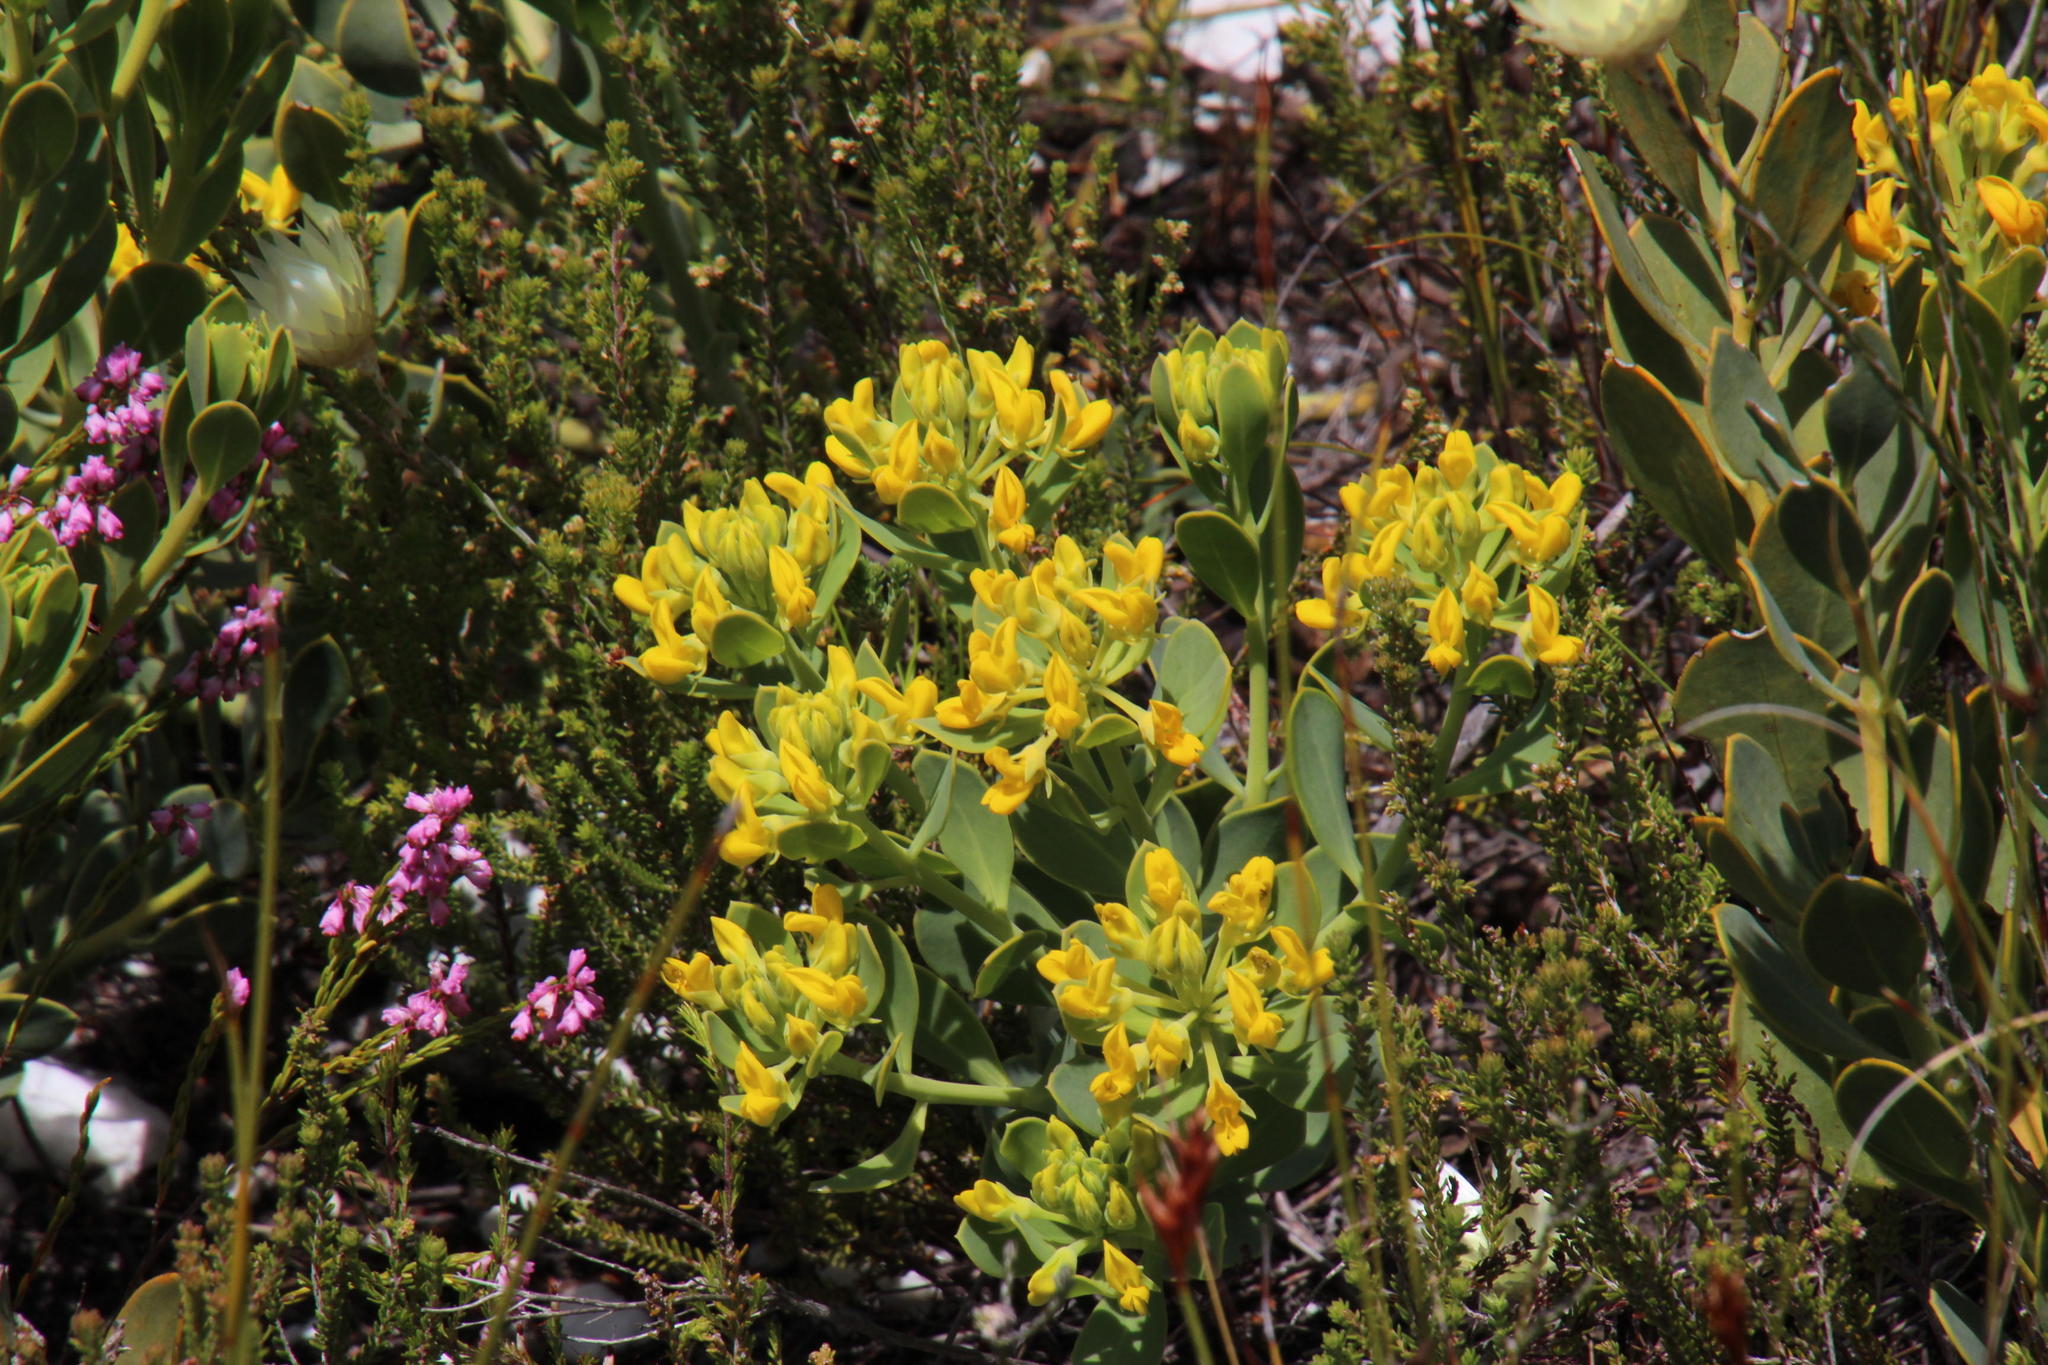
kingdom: Plantae
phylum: Tracheophyta
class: Magnoliopsida
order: Fabales
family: Fabaceae
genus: Rafnia
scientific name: Rafnia capensis
